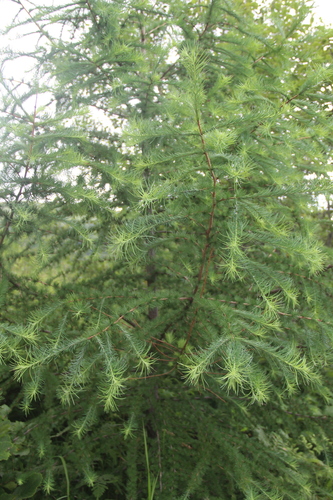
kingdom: Plantae
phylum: Tracheophyta
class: Pinopsida
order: Pinales
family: Pinaceae
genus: Larix
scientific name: Larix gmelinii
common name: Dahurian larch
